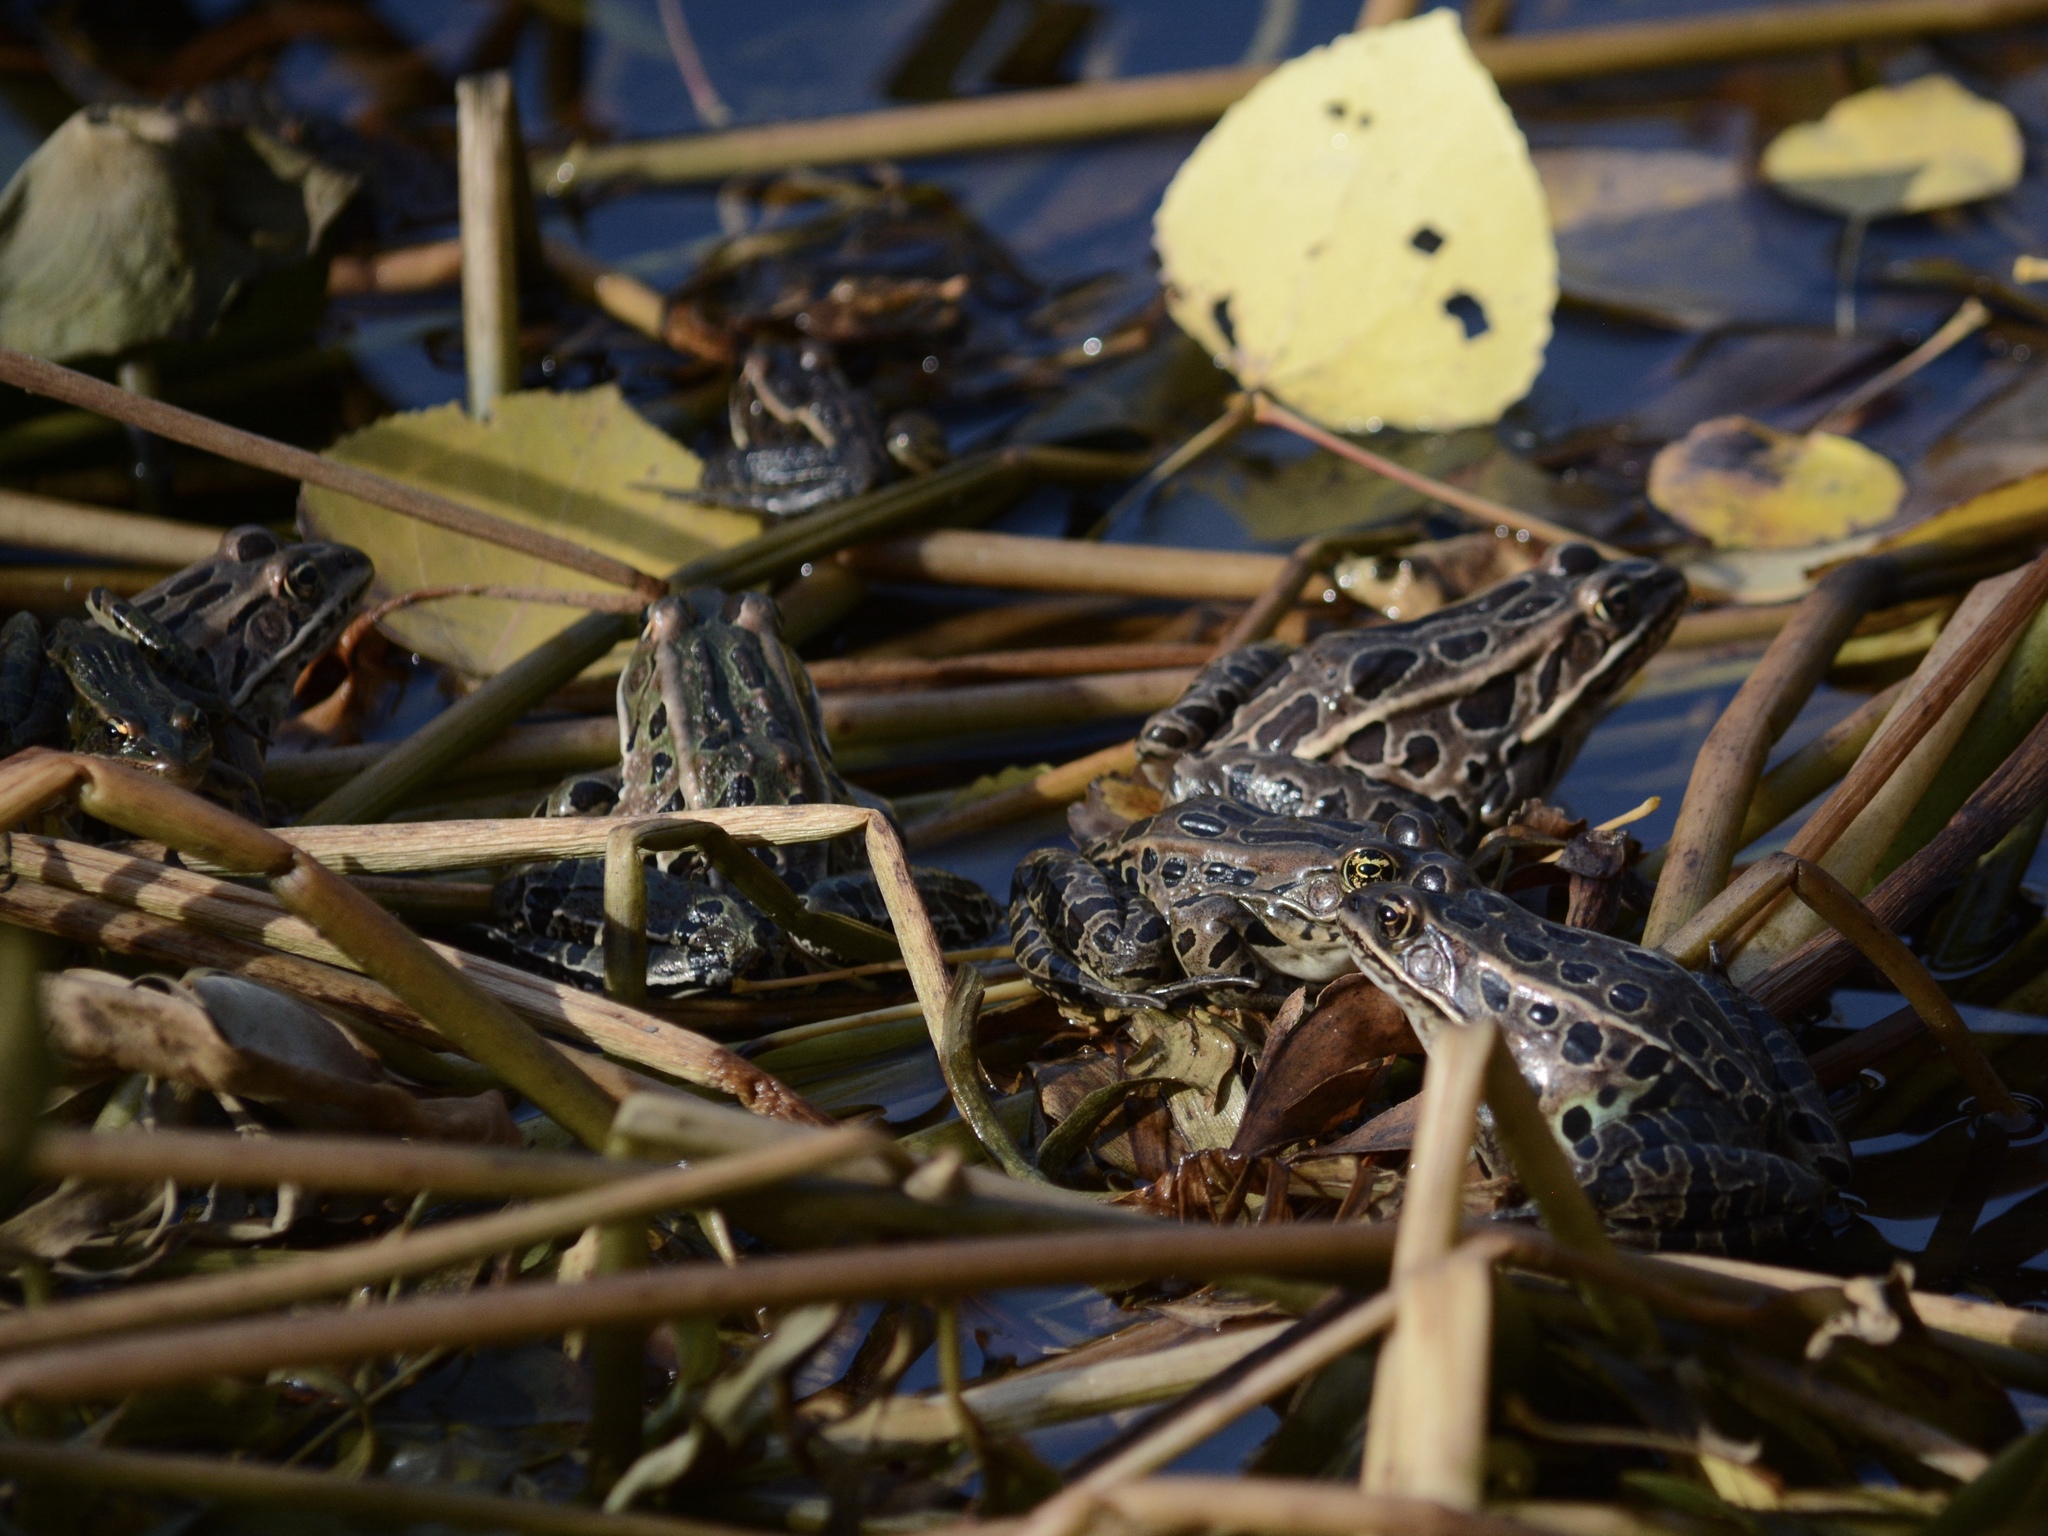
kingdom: Animalia
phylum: Chordata
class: Amphibia
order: Anura
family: Ranidae
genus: Lithobates
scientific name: Lithobates pipiens
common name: Northern leopard frog
